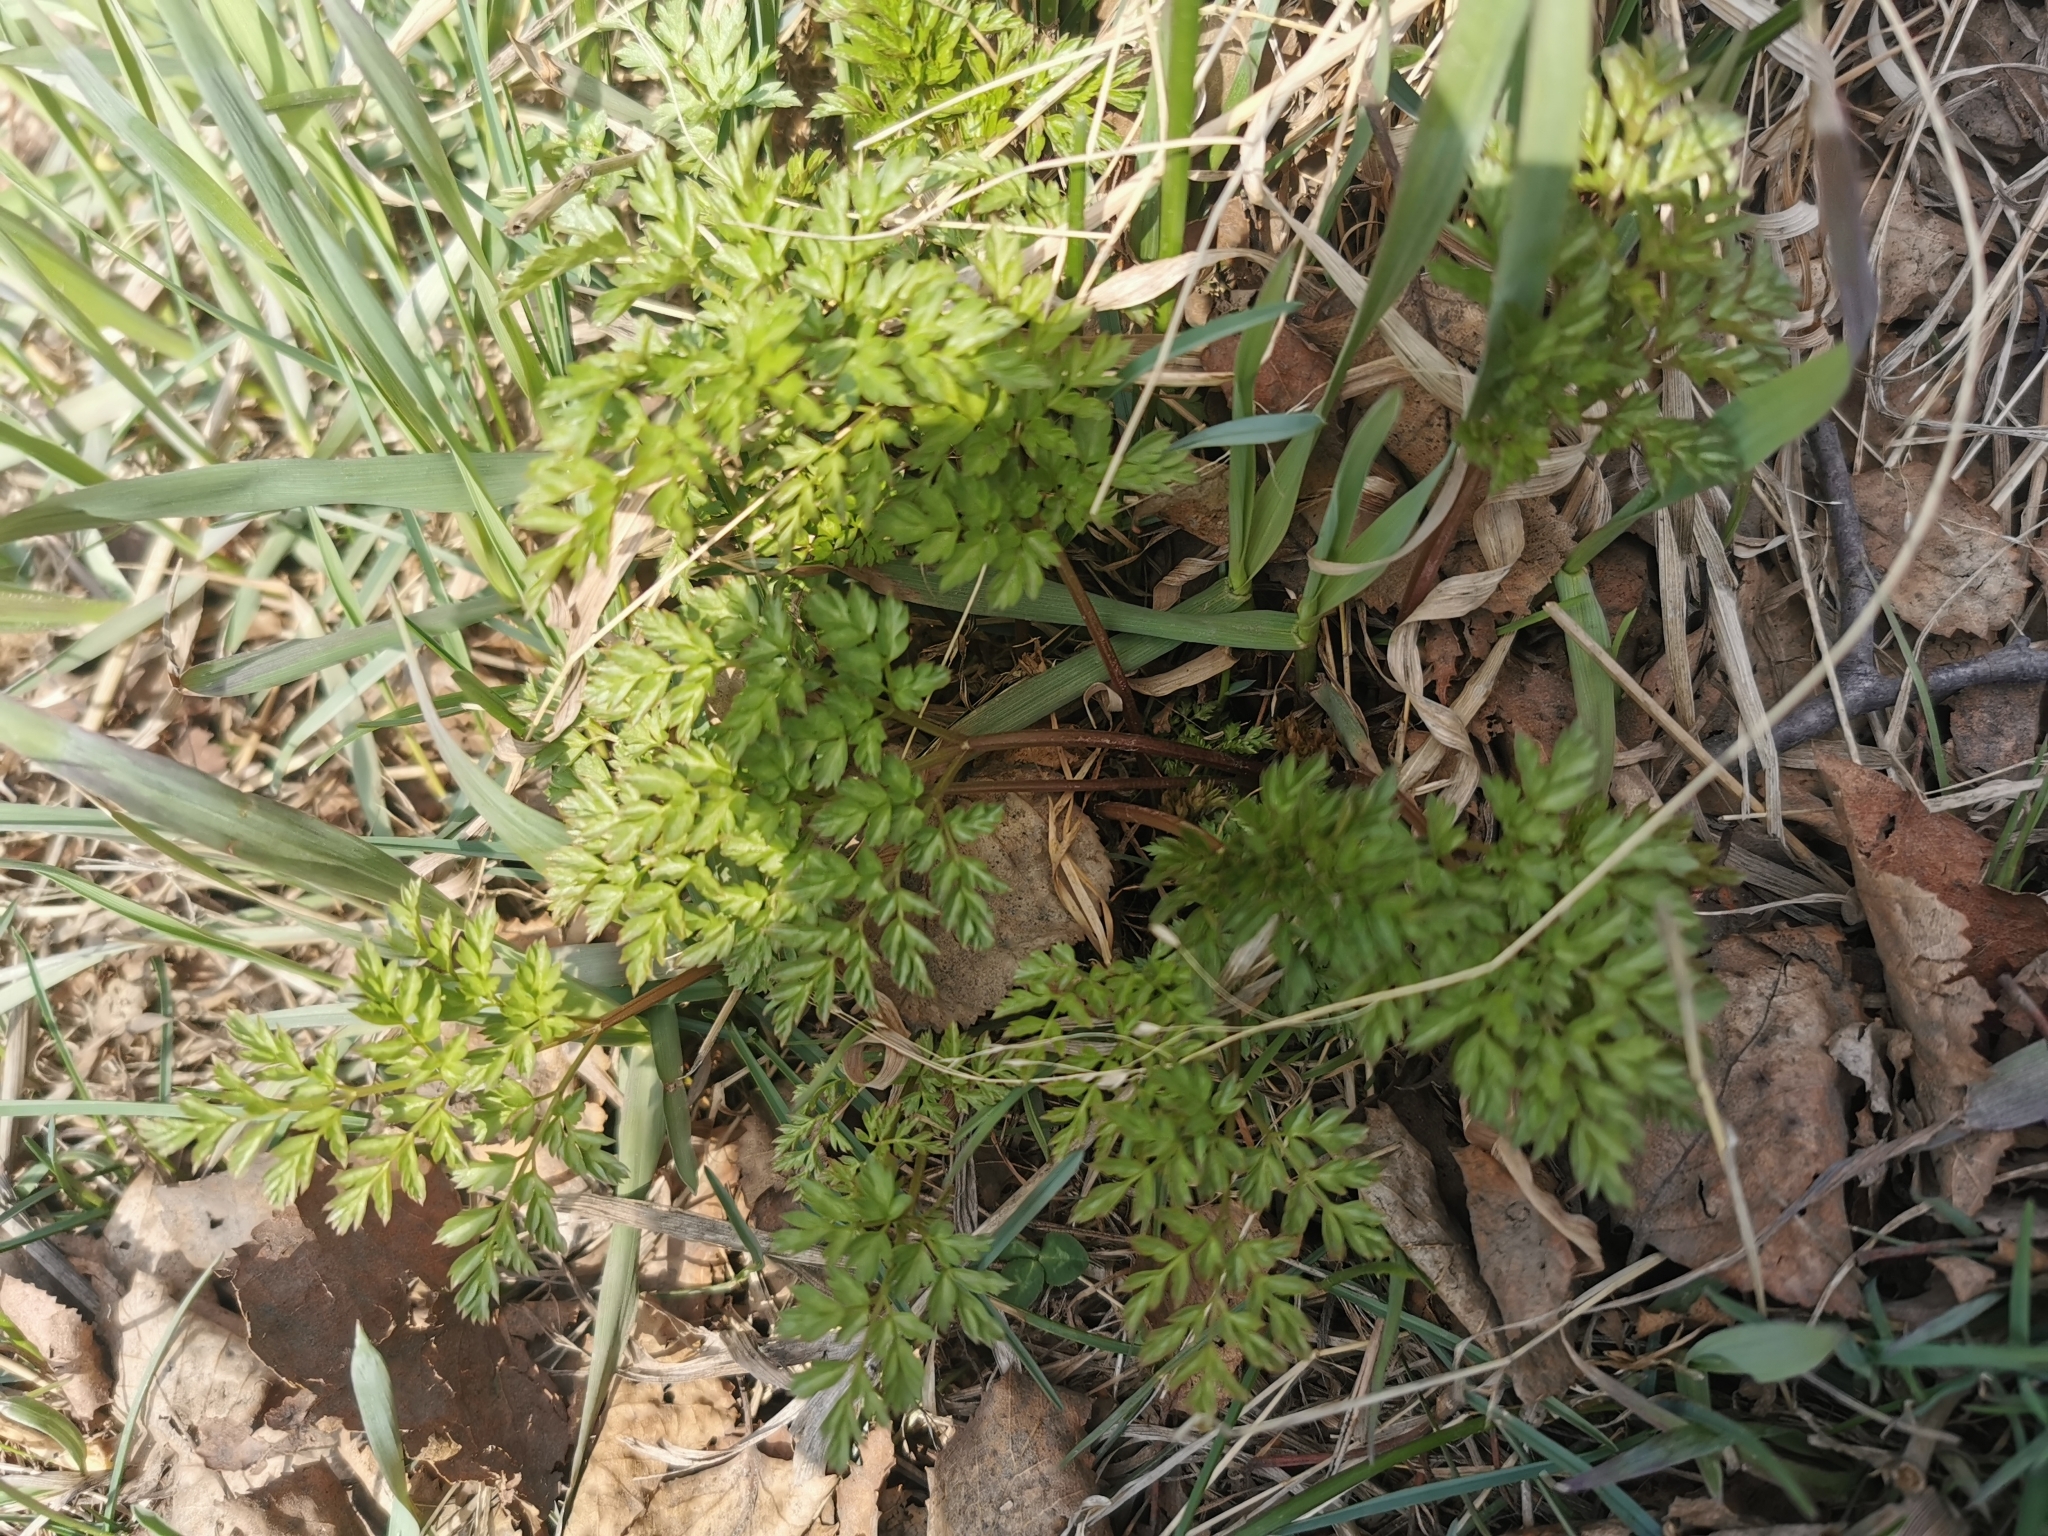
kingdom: Plantae
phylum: Tracheophyta
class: Magnoliopsida
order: Apiales
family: Apiaceae
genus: Anthriscus
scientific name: Anthriscus sylvestris
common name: Cow parsley
